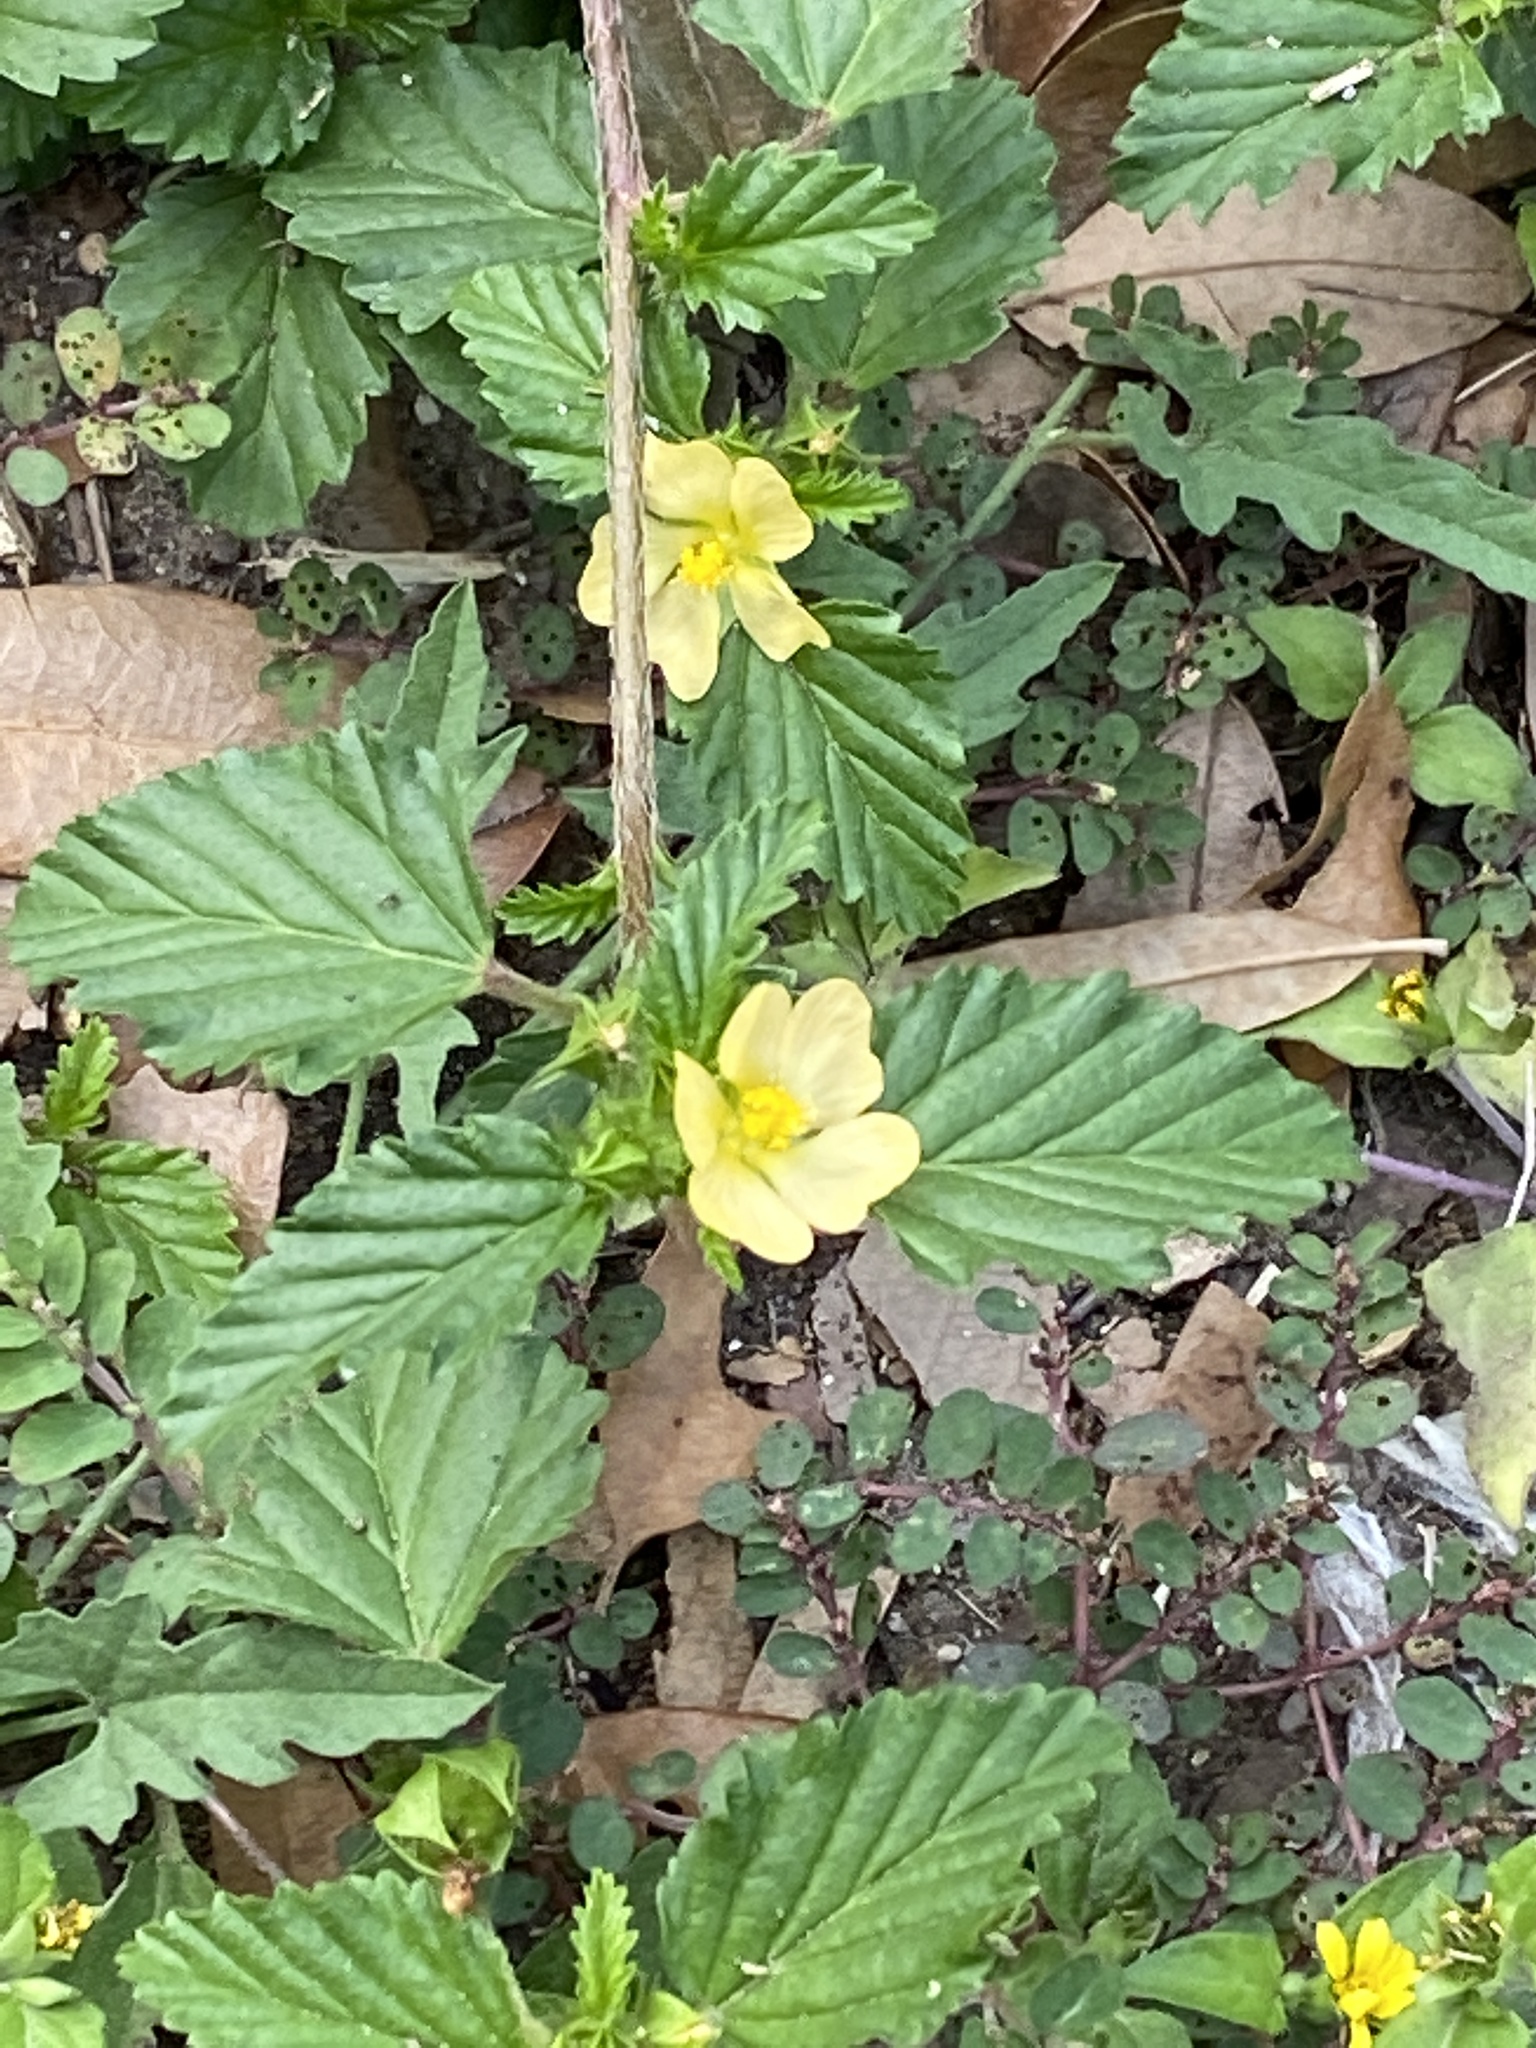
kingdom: Plantae
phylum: Tracheophyta
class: Magnoliopsida
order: Malvales
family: Malvaceae
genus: Malvastrum
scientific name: Malvastrum coromandelianum
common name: Threelobe false mallow
